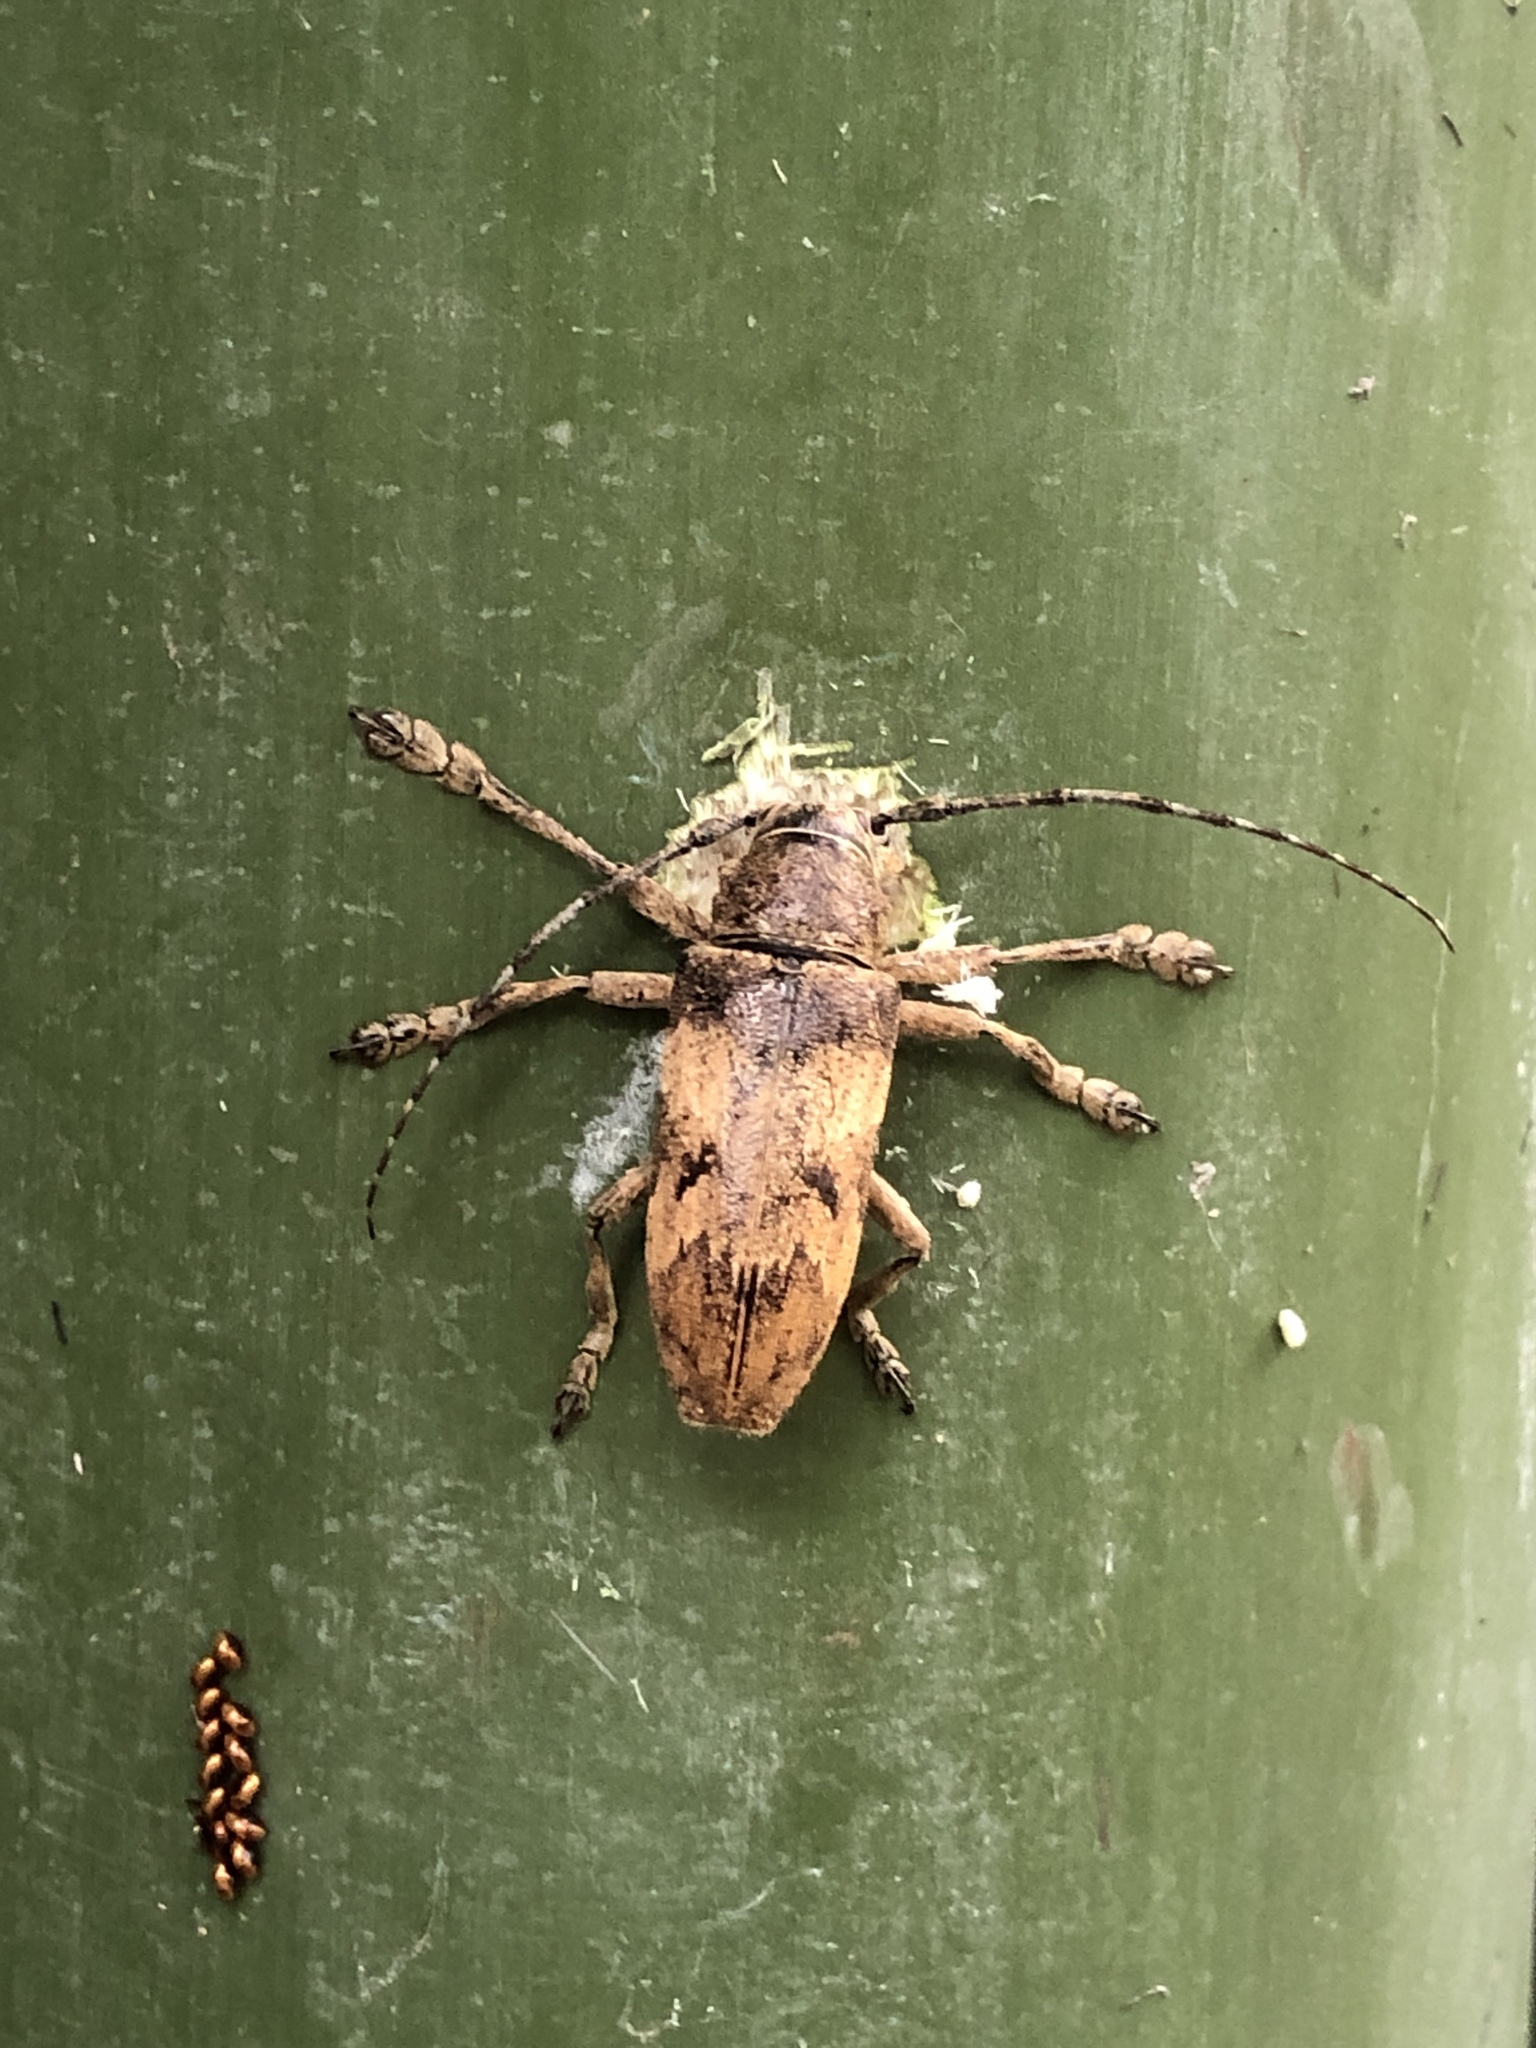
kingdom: Animalia
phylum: Arthropoda
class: Insecta
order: Coleoptera
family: Cerambycidae
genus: Abryna
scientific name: Abryna obscura
